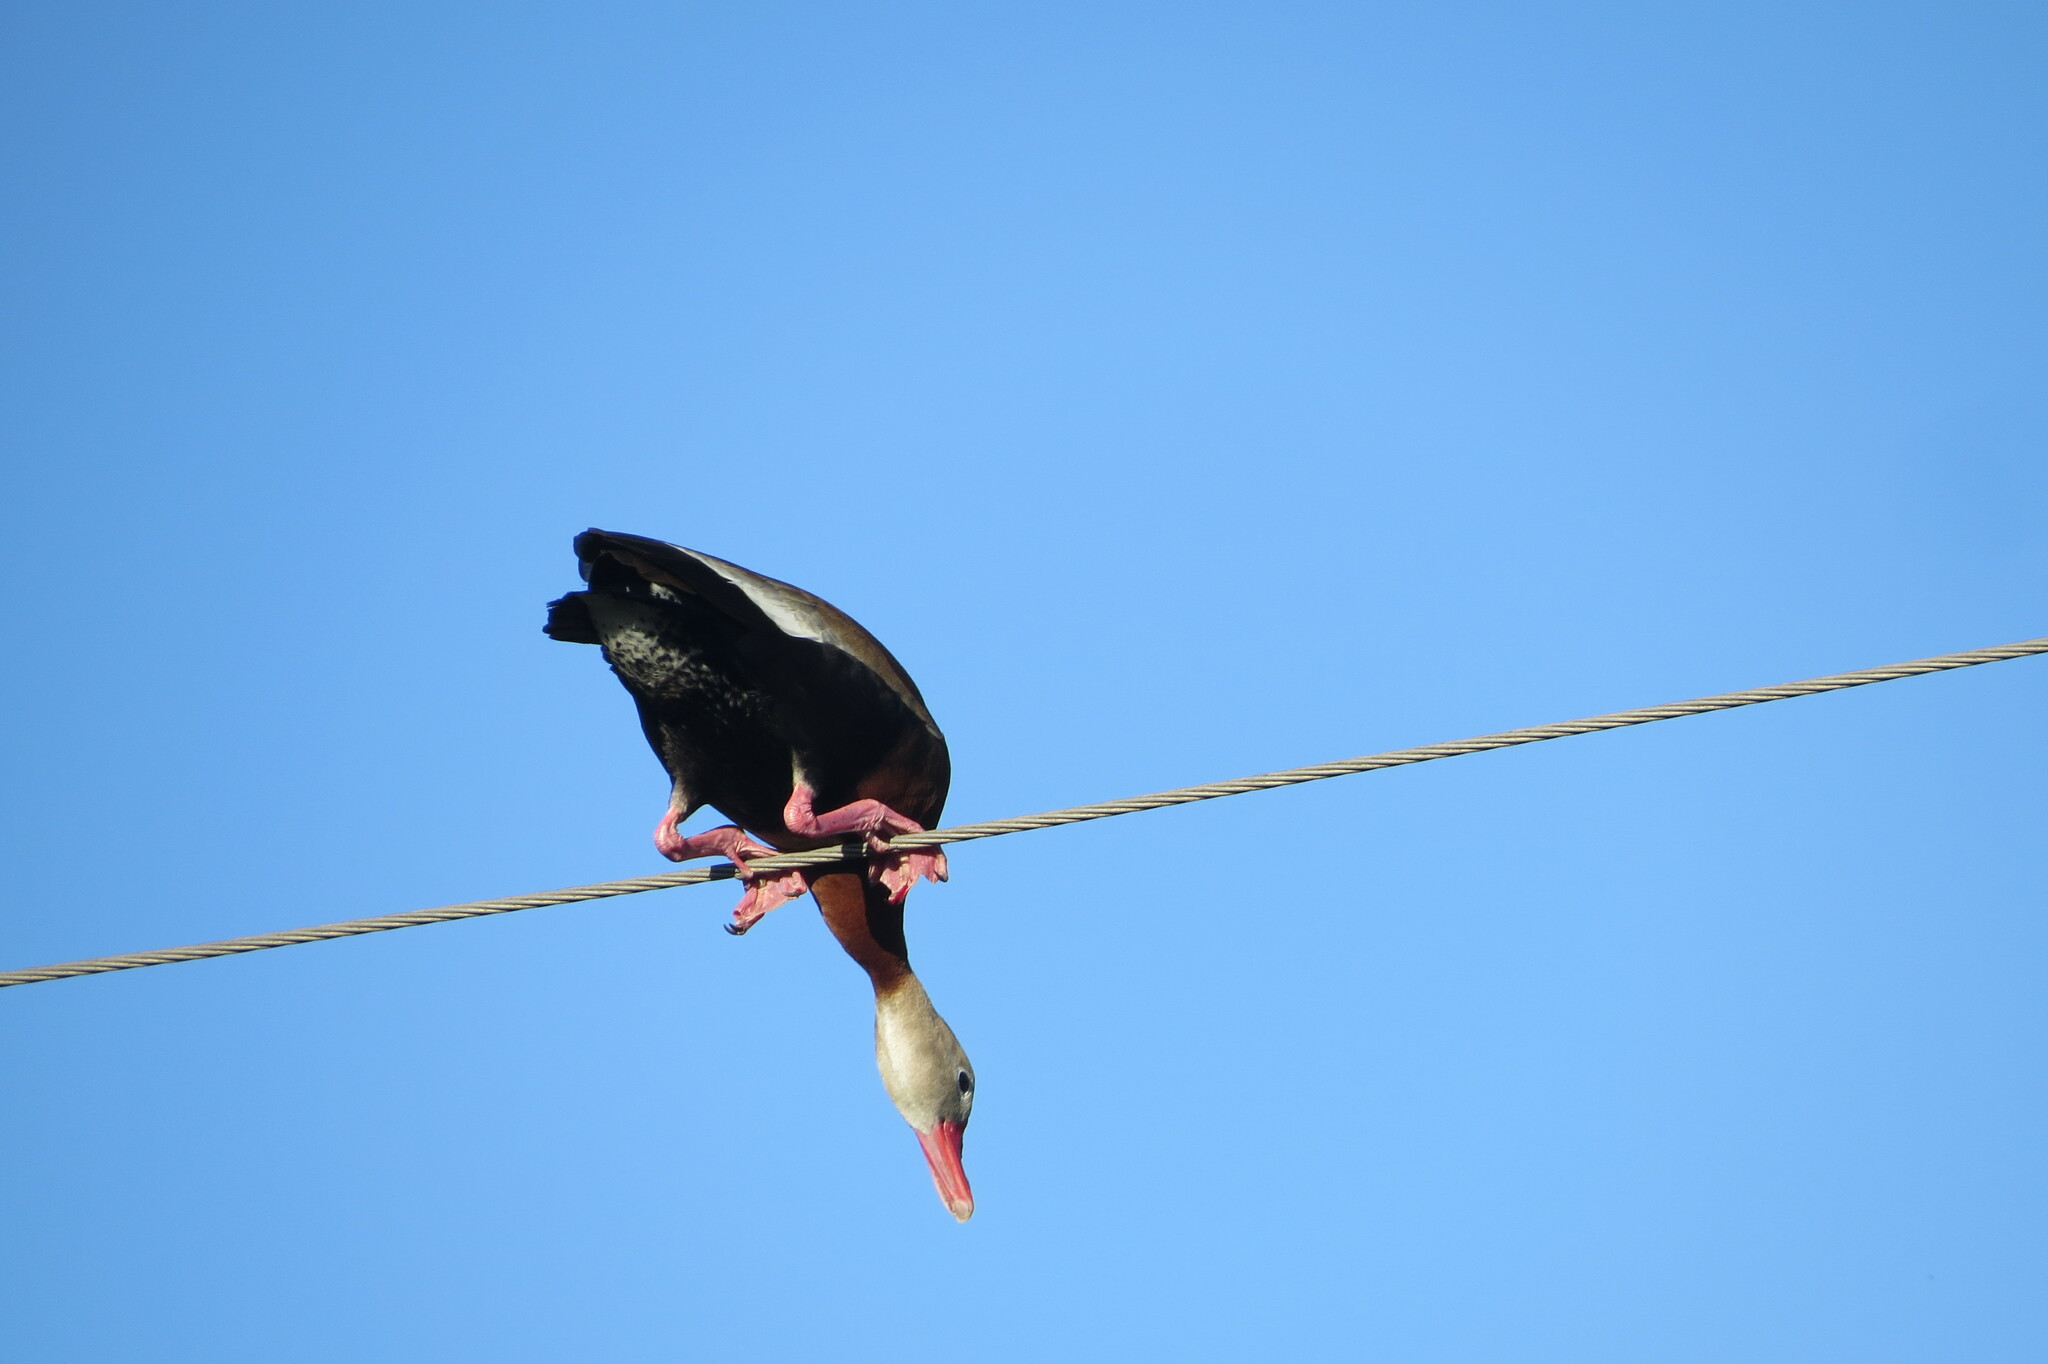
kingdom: Animalia
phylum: Chordata
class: Aves
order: Anseriformes
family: Anatidae
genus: Dendrocygna
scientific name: Dendrocygna autumnalis
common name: Black-bellied whistling duck
